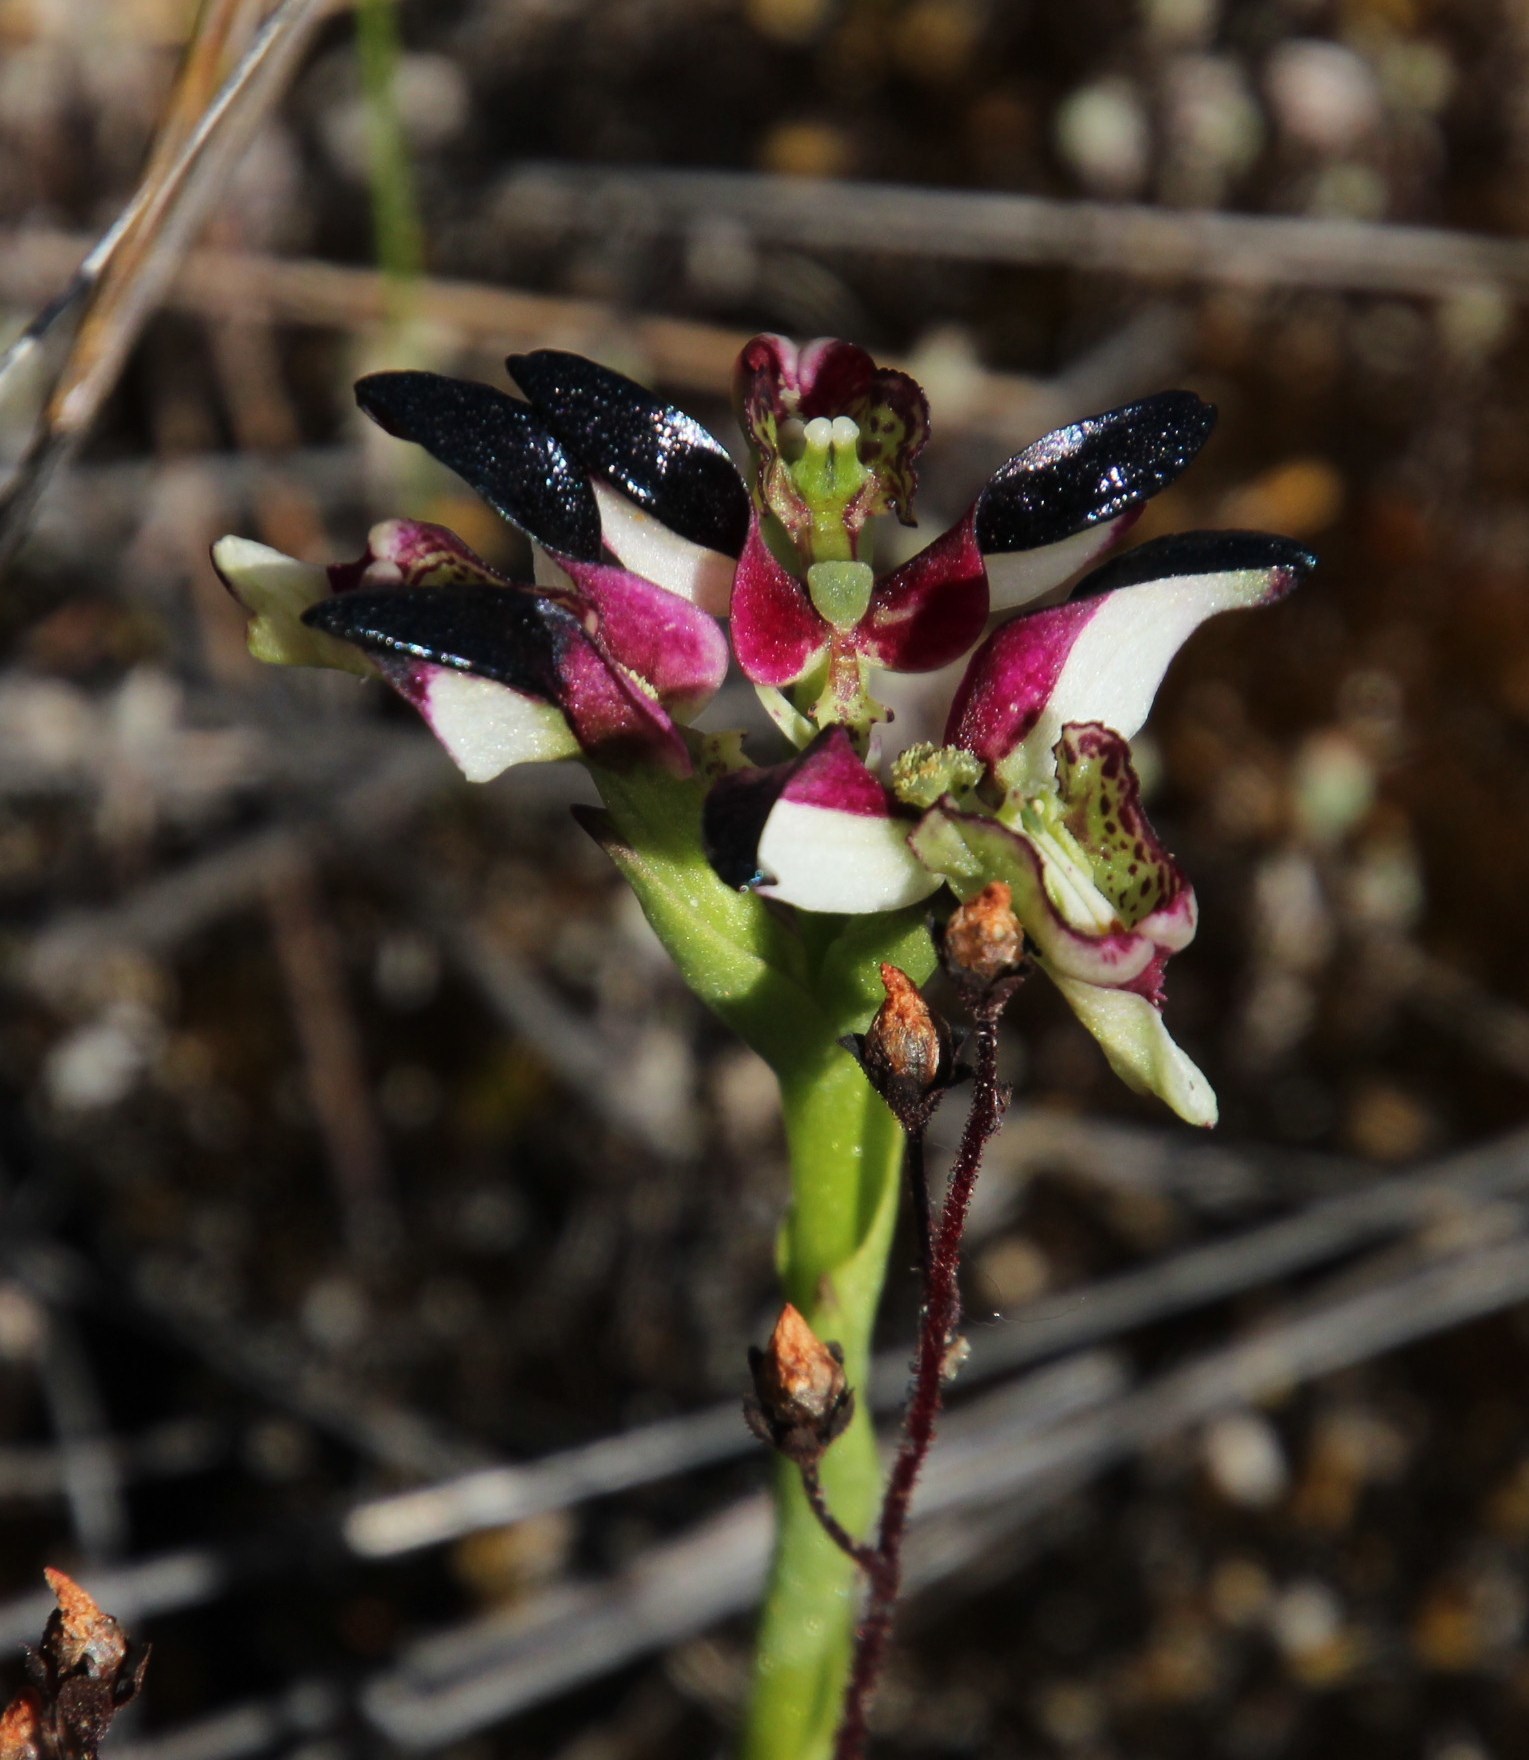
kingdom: Plantae
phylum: Tracheophyta
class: Liliopsida
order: Asparagales
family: Orchidaceae
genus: Disa
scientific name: Disa atricapilla
